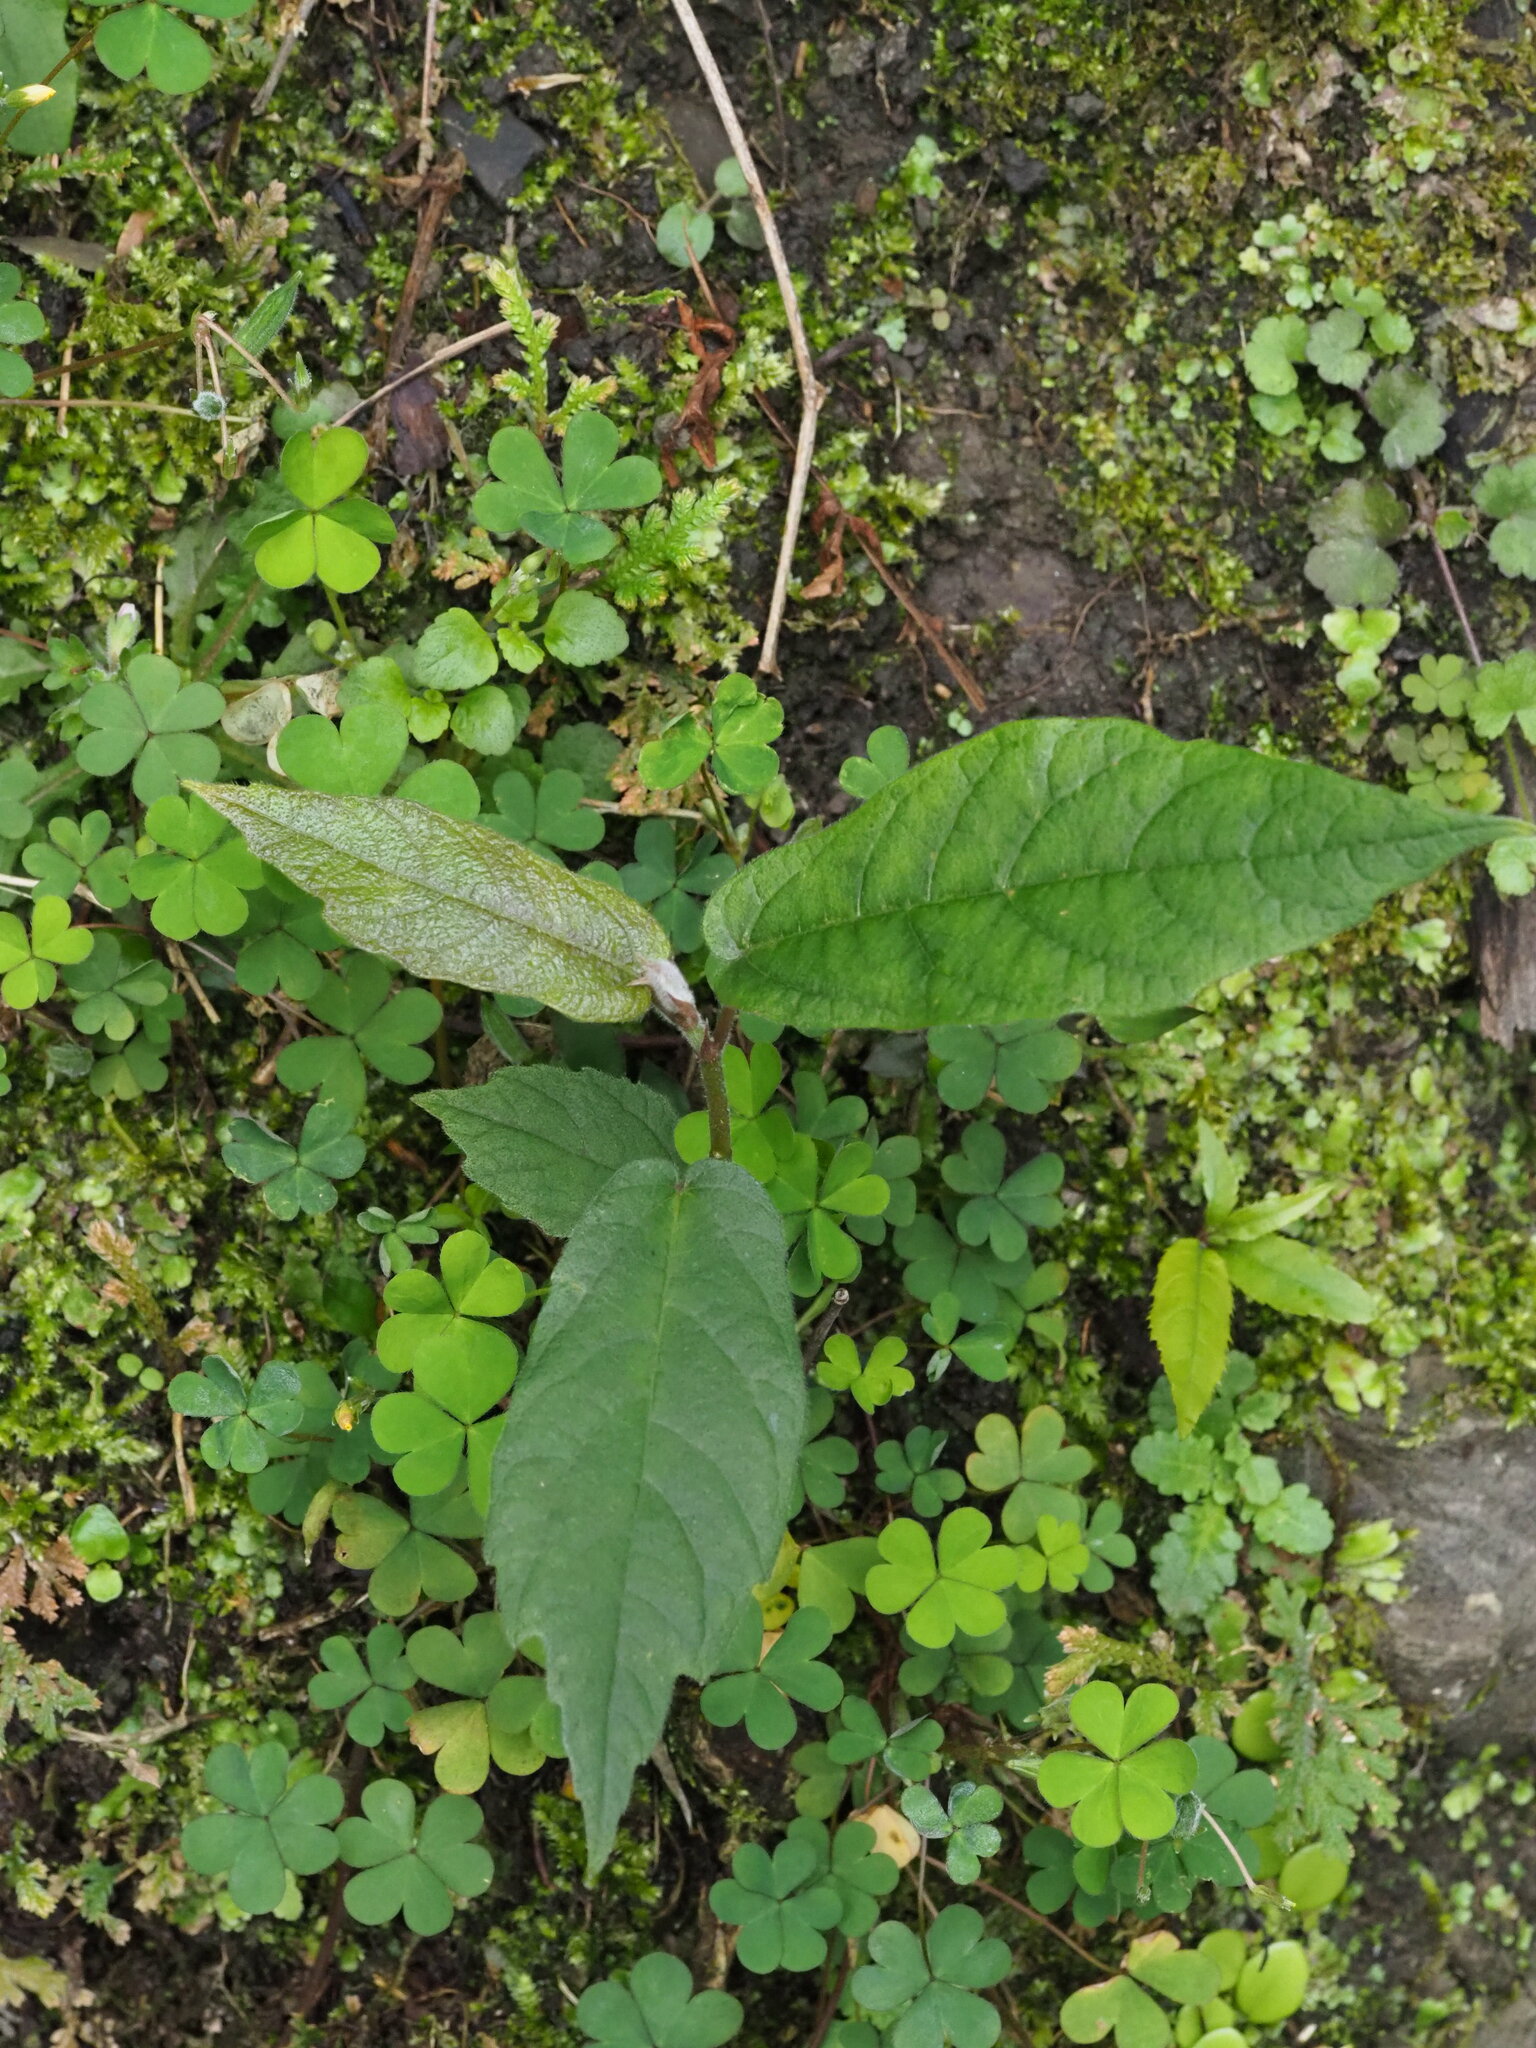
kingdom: Plantae
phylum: Tracheophyta
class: Magnoliopsida
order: Rosales
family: Moraceae
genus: Ficus
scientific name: Ficus erecta
